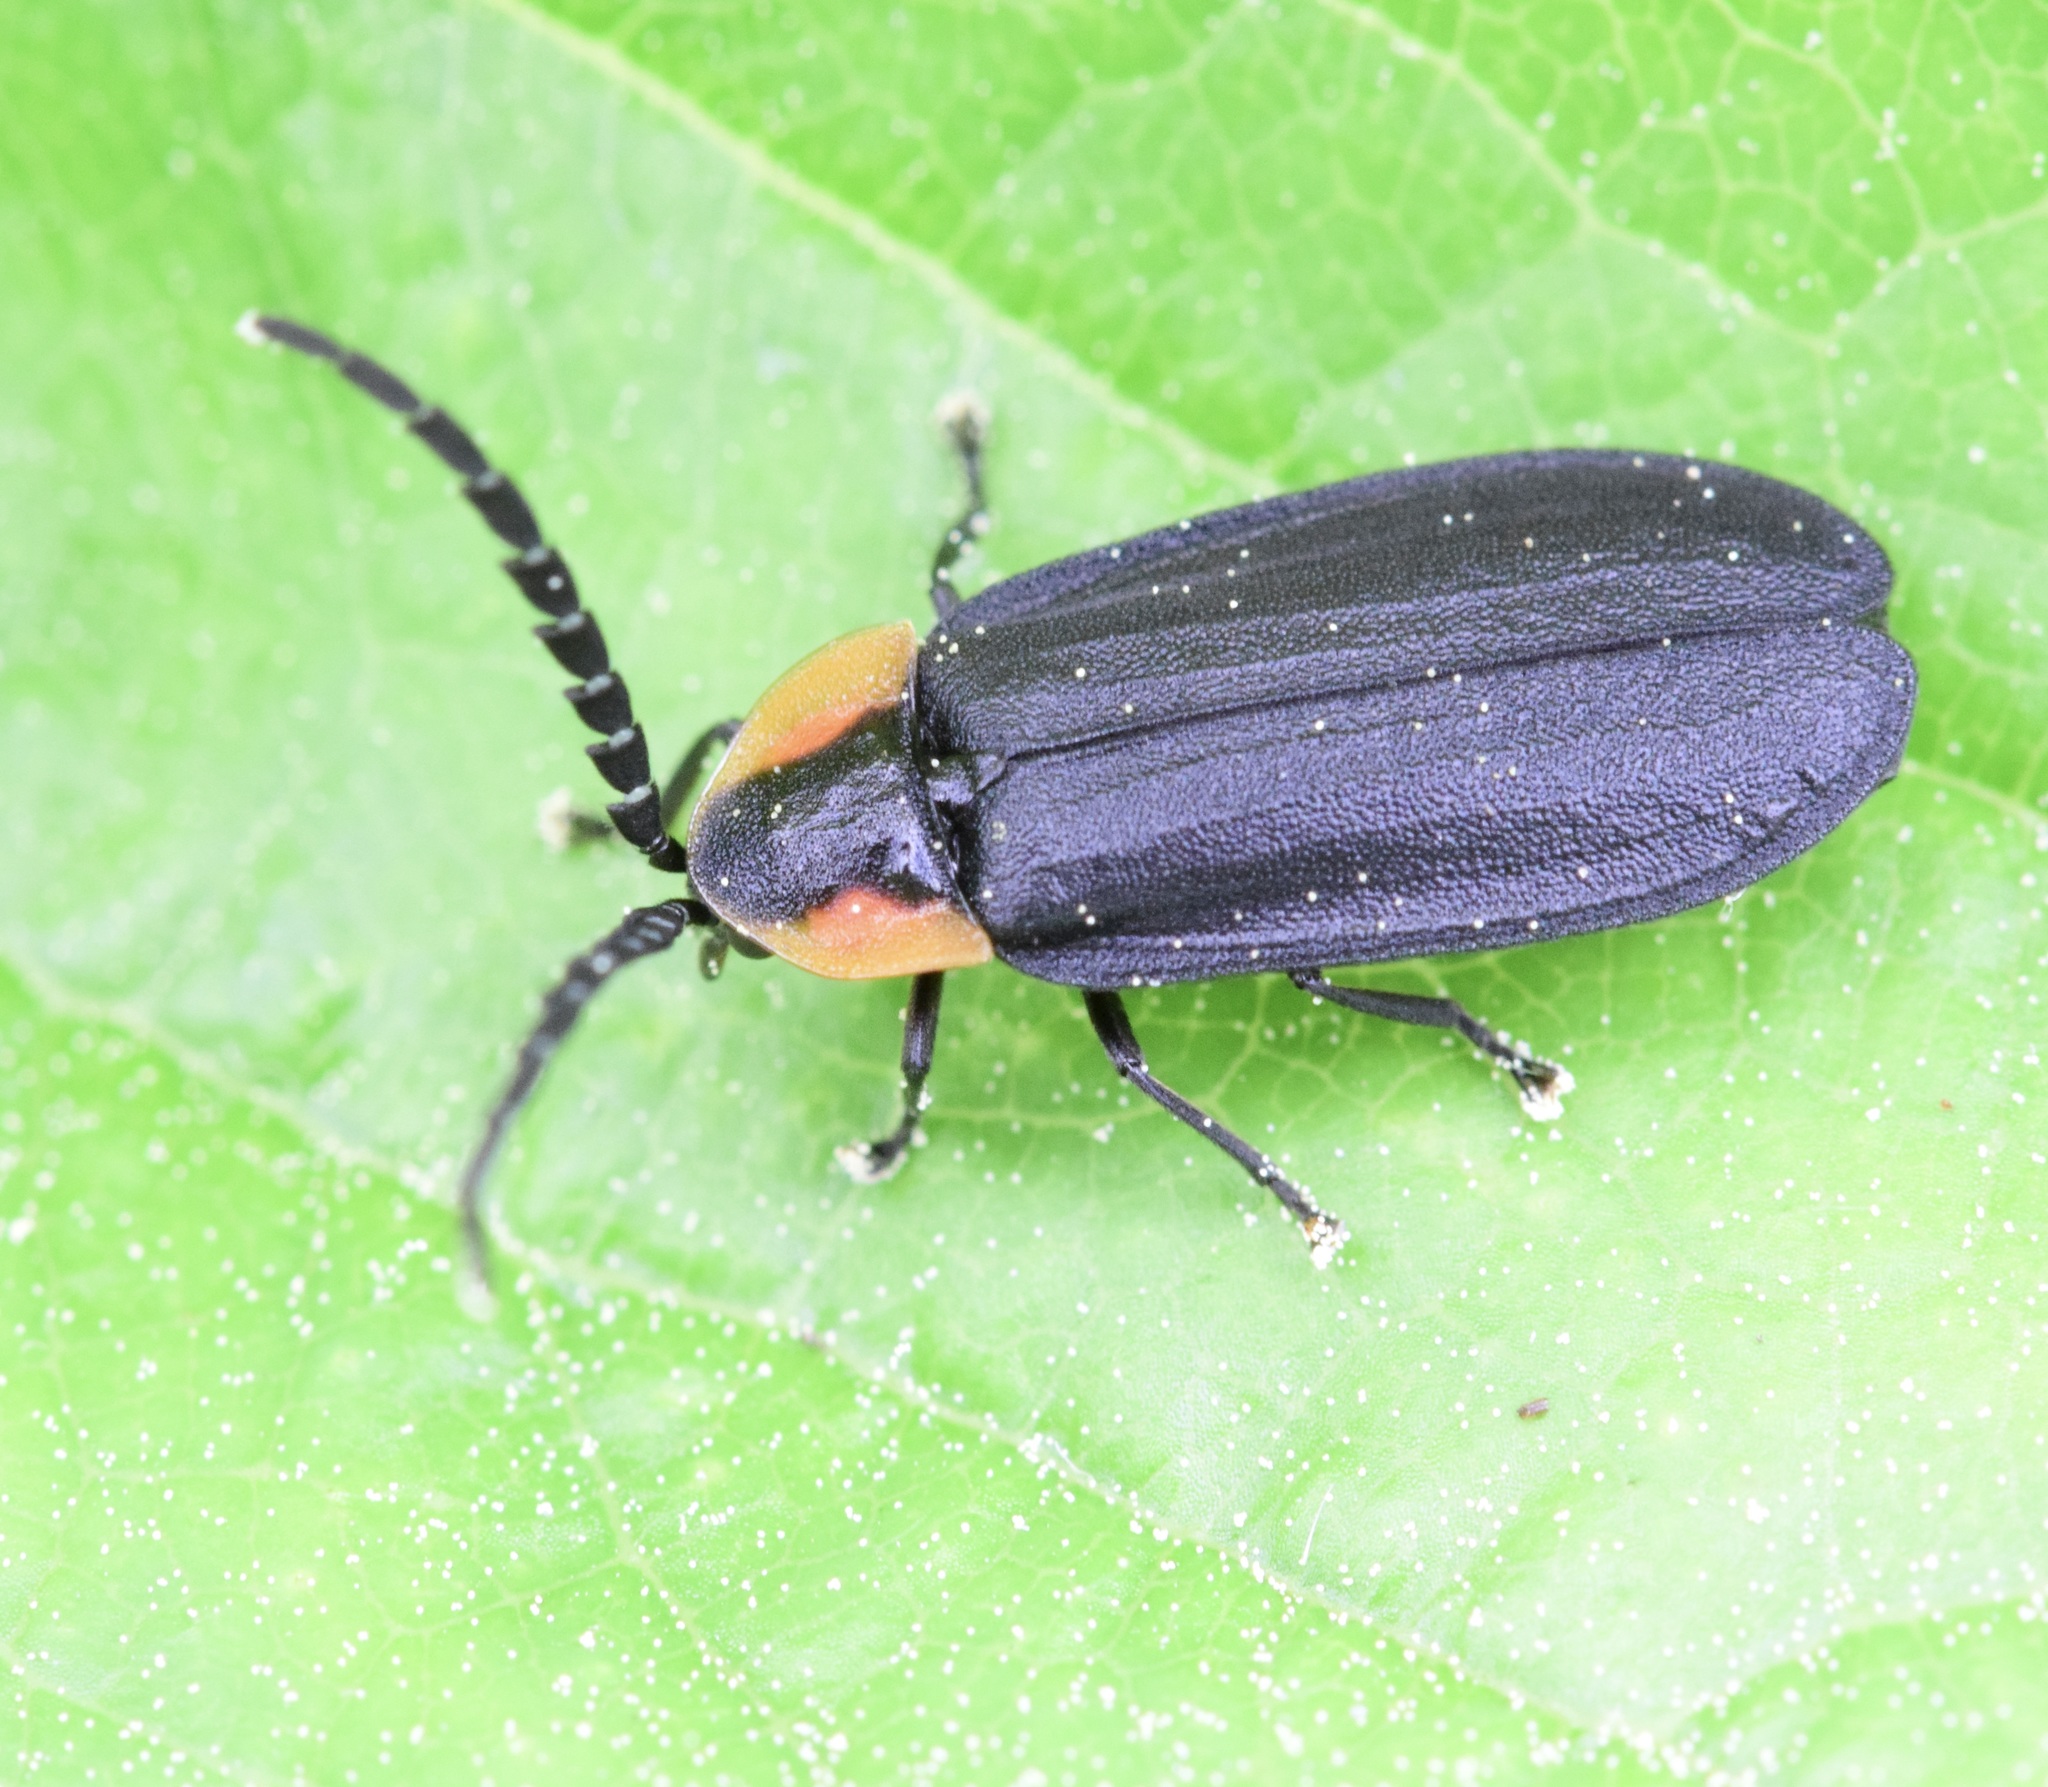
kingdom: Animalia
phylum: Arthropoda
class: Insecta
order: Coleoptera
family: Lampyridae
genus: Lucidota
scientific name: Lucidota atra
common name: Black firefly
